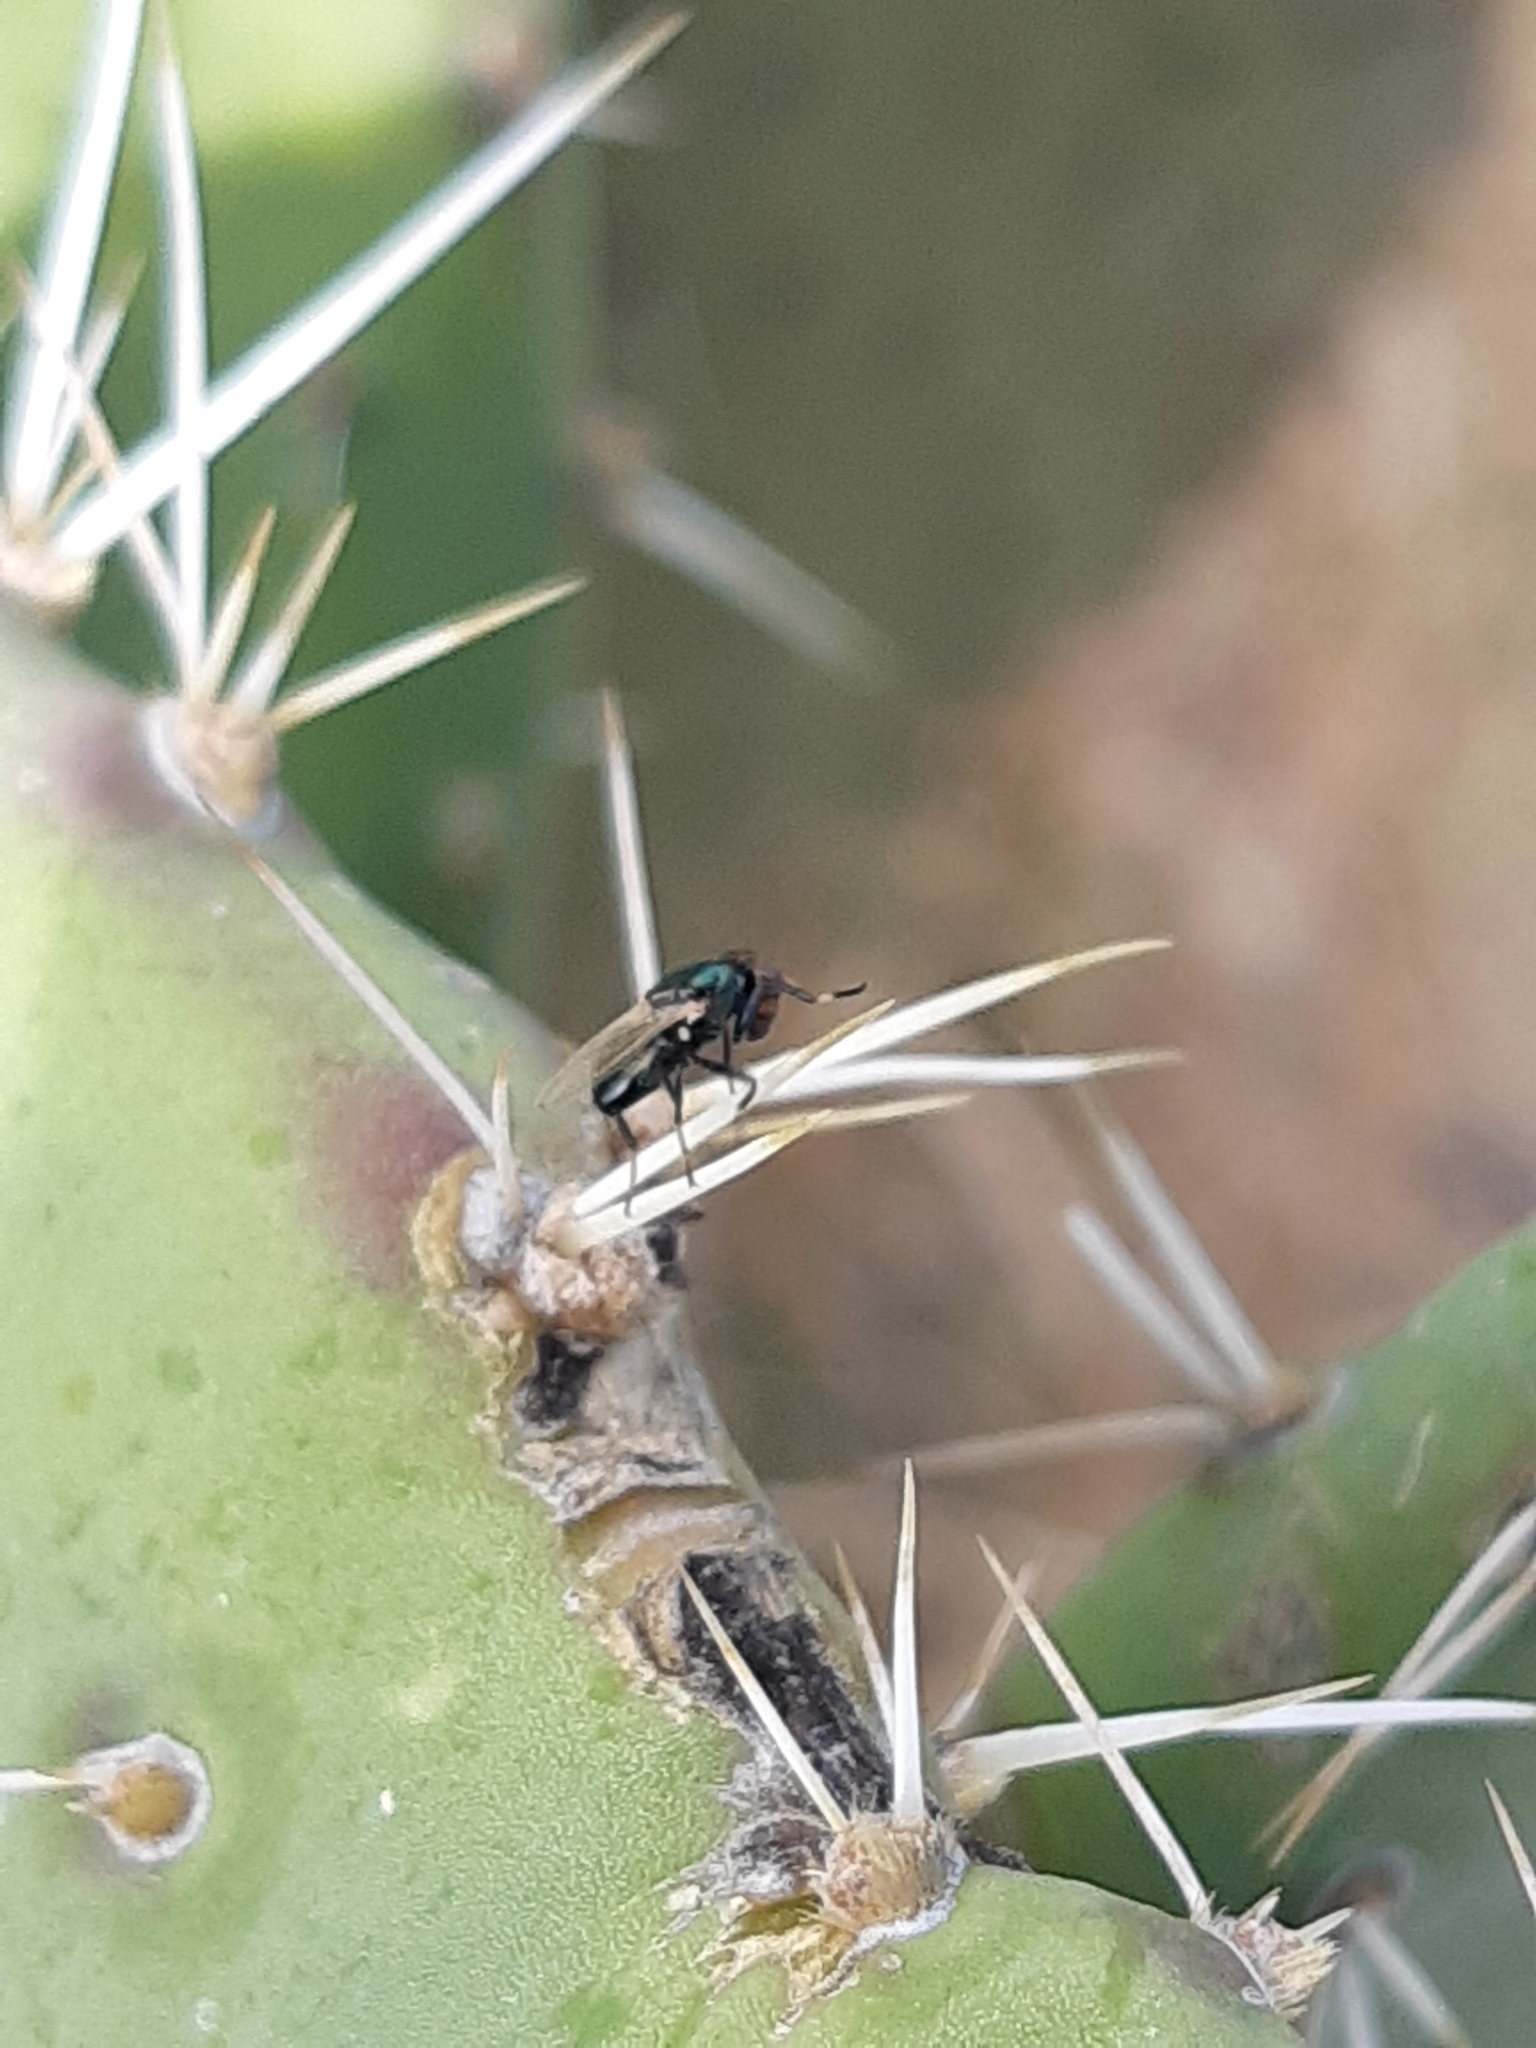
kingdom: Animalia
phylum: Arthropoda
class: Insecta
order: Diptera
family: Ulidiidae
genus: Physiphora
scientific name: Physiphora alceae
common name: Picture-winged fly
